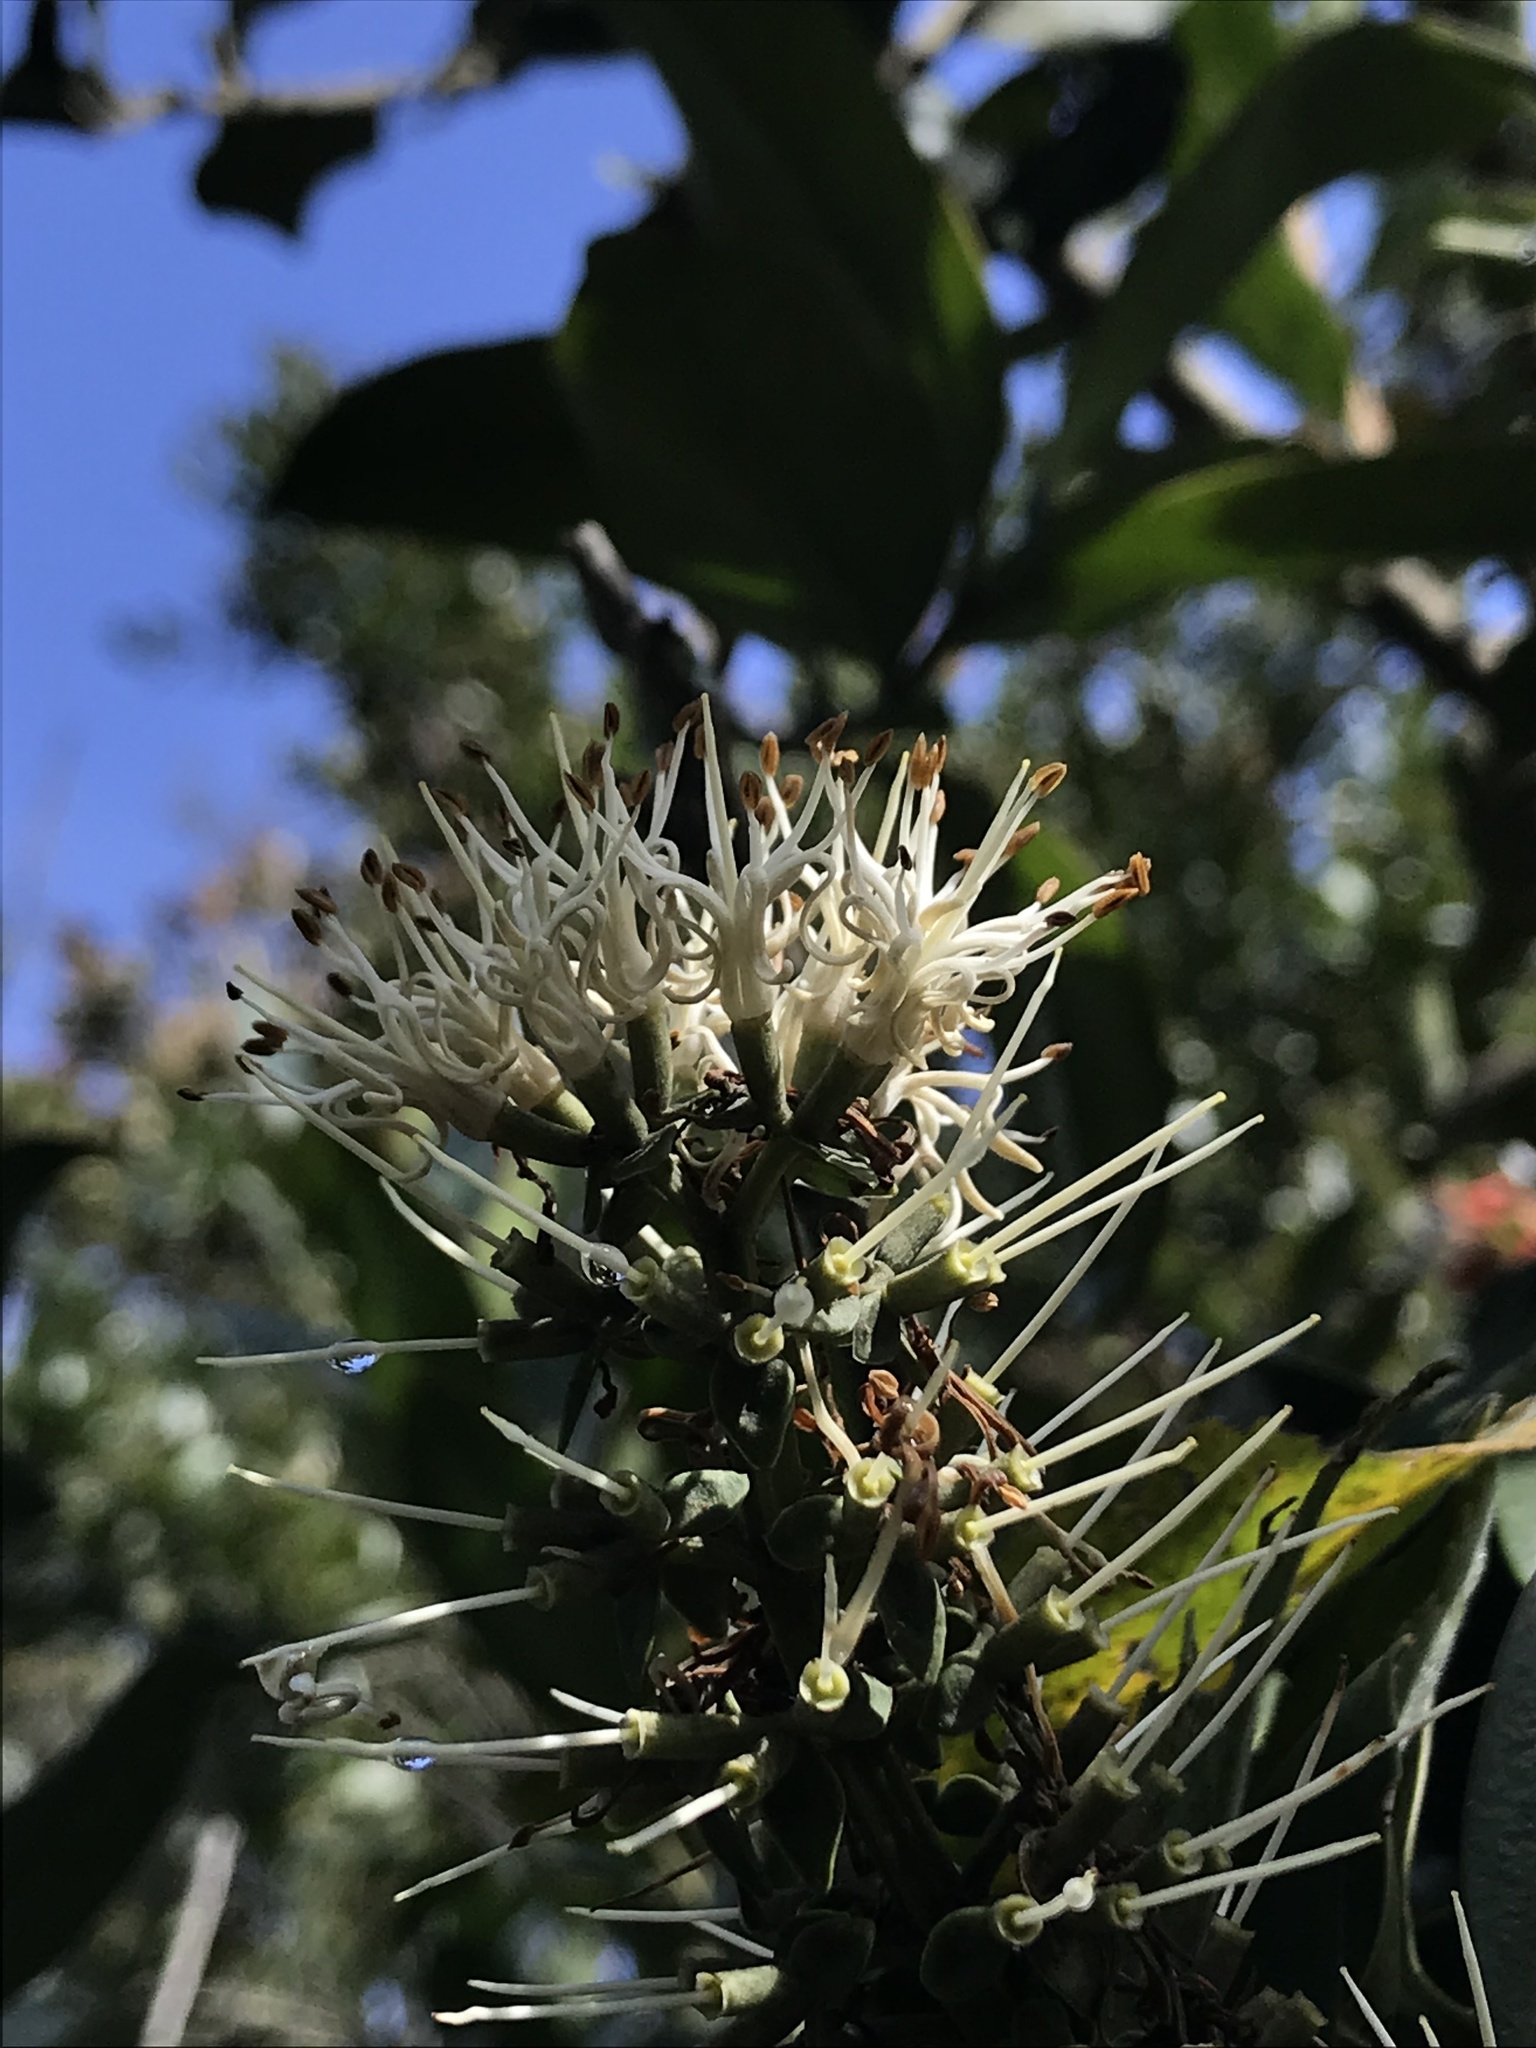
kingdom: Plantae
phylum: Tracheophyta
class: Magnoliopsida
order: Santalales
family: Loranthaceae
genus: Gaiadendron
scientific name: Gaiadendron punctatum
